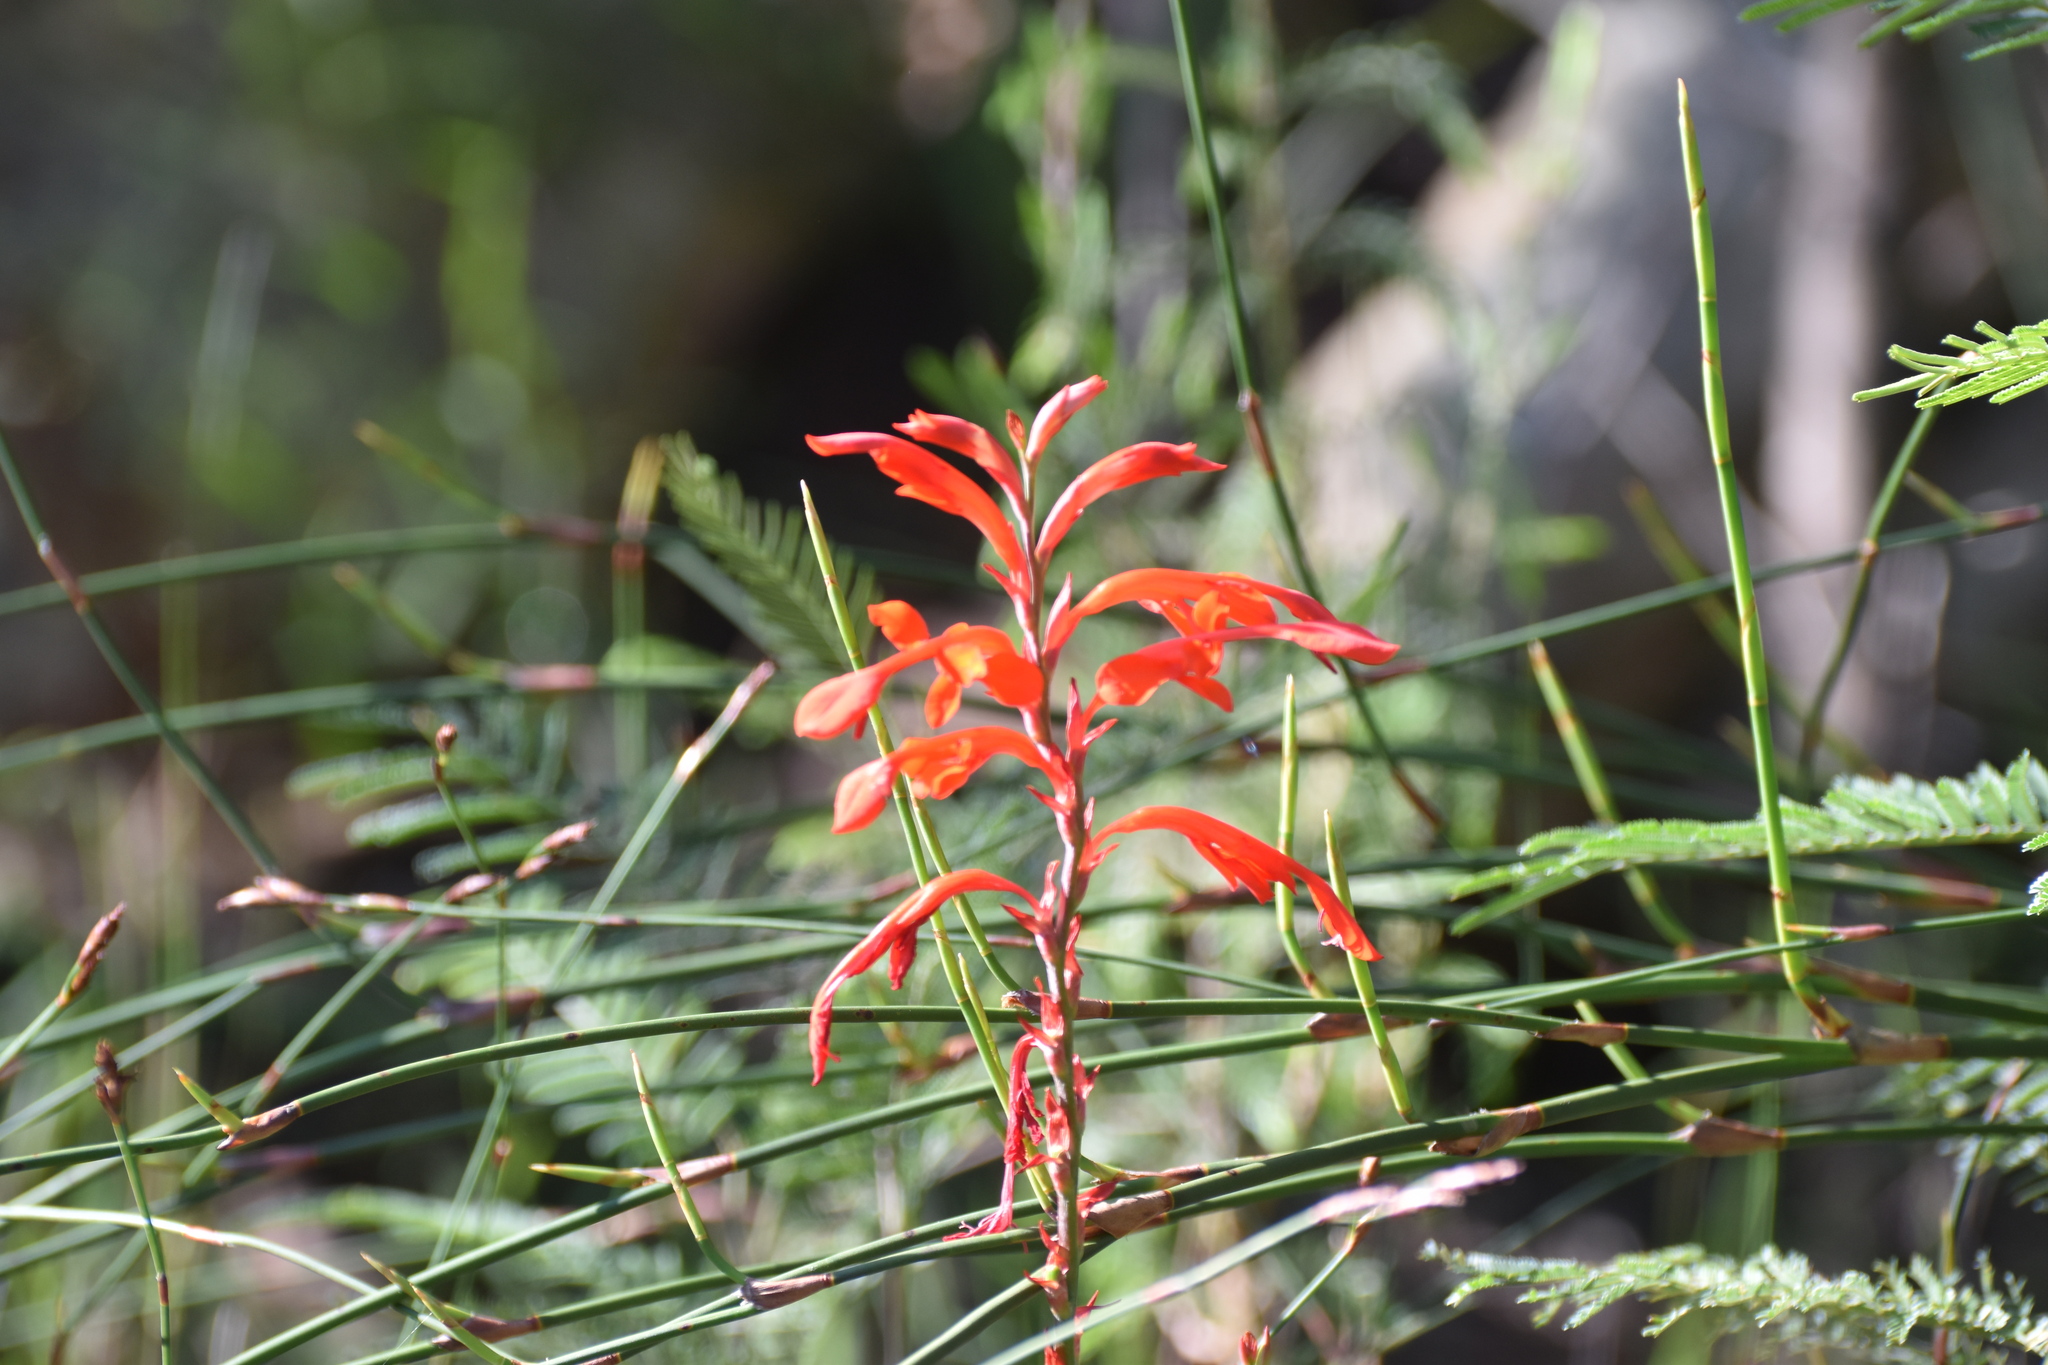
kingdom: Plantae
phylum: Tracheophyta
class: Liliopsida
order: Asparagales
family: Iridaceae
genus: Tritoniopsis
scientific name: Tritoniopsis caffra
